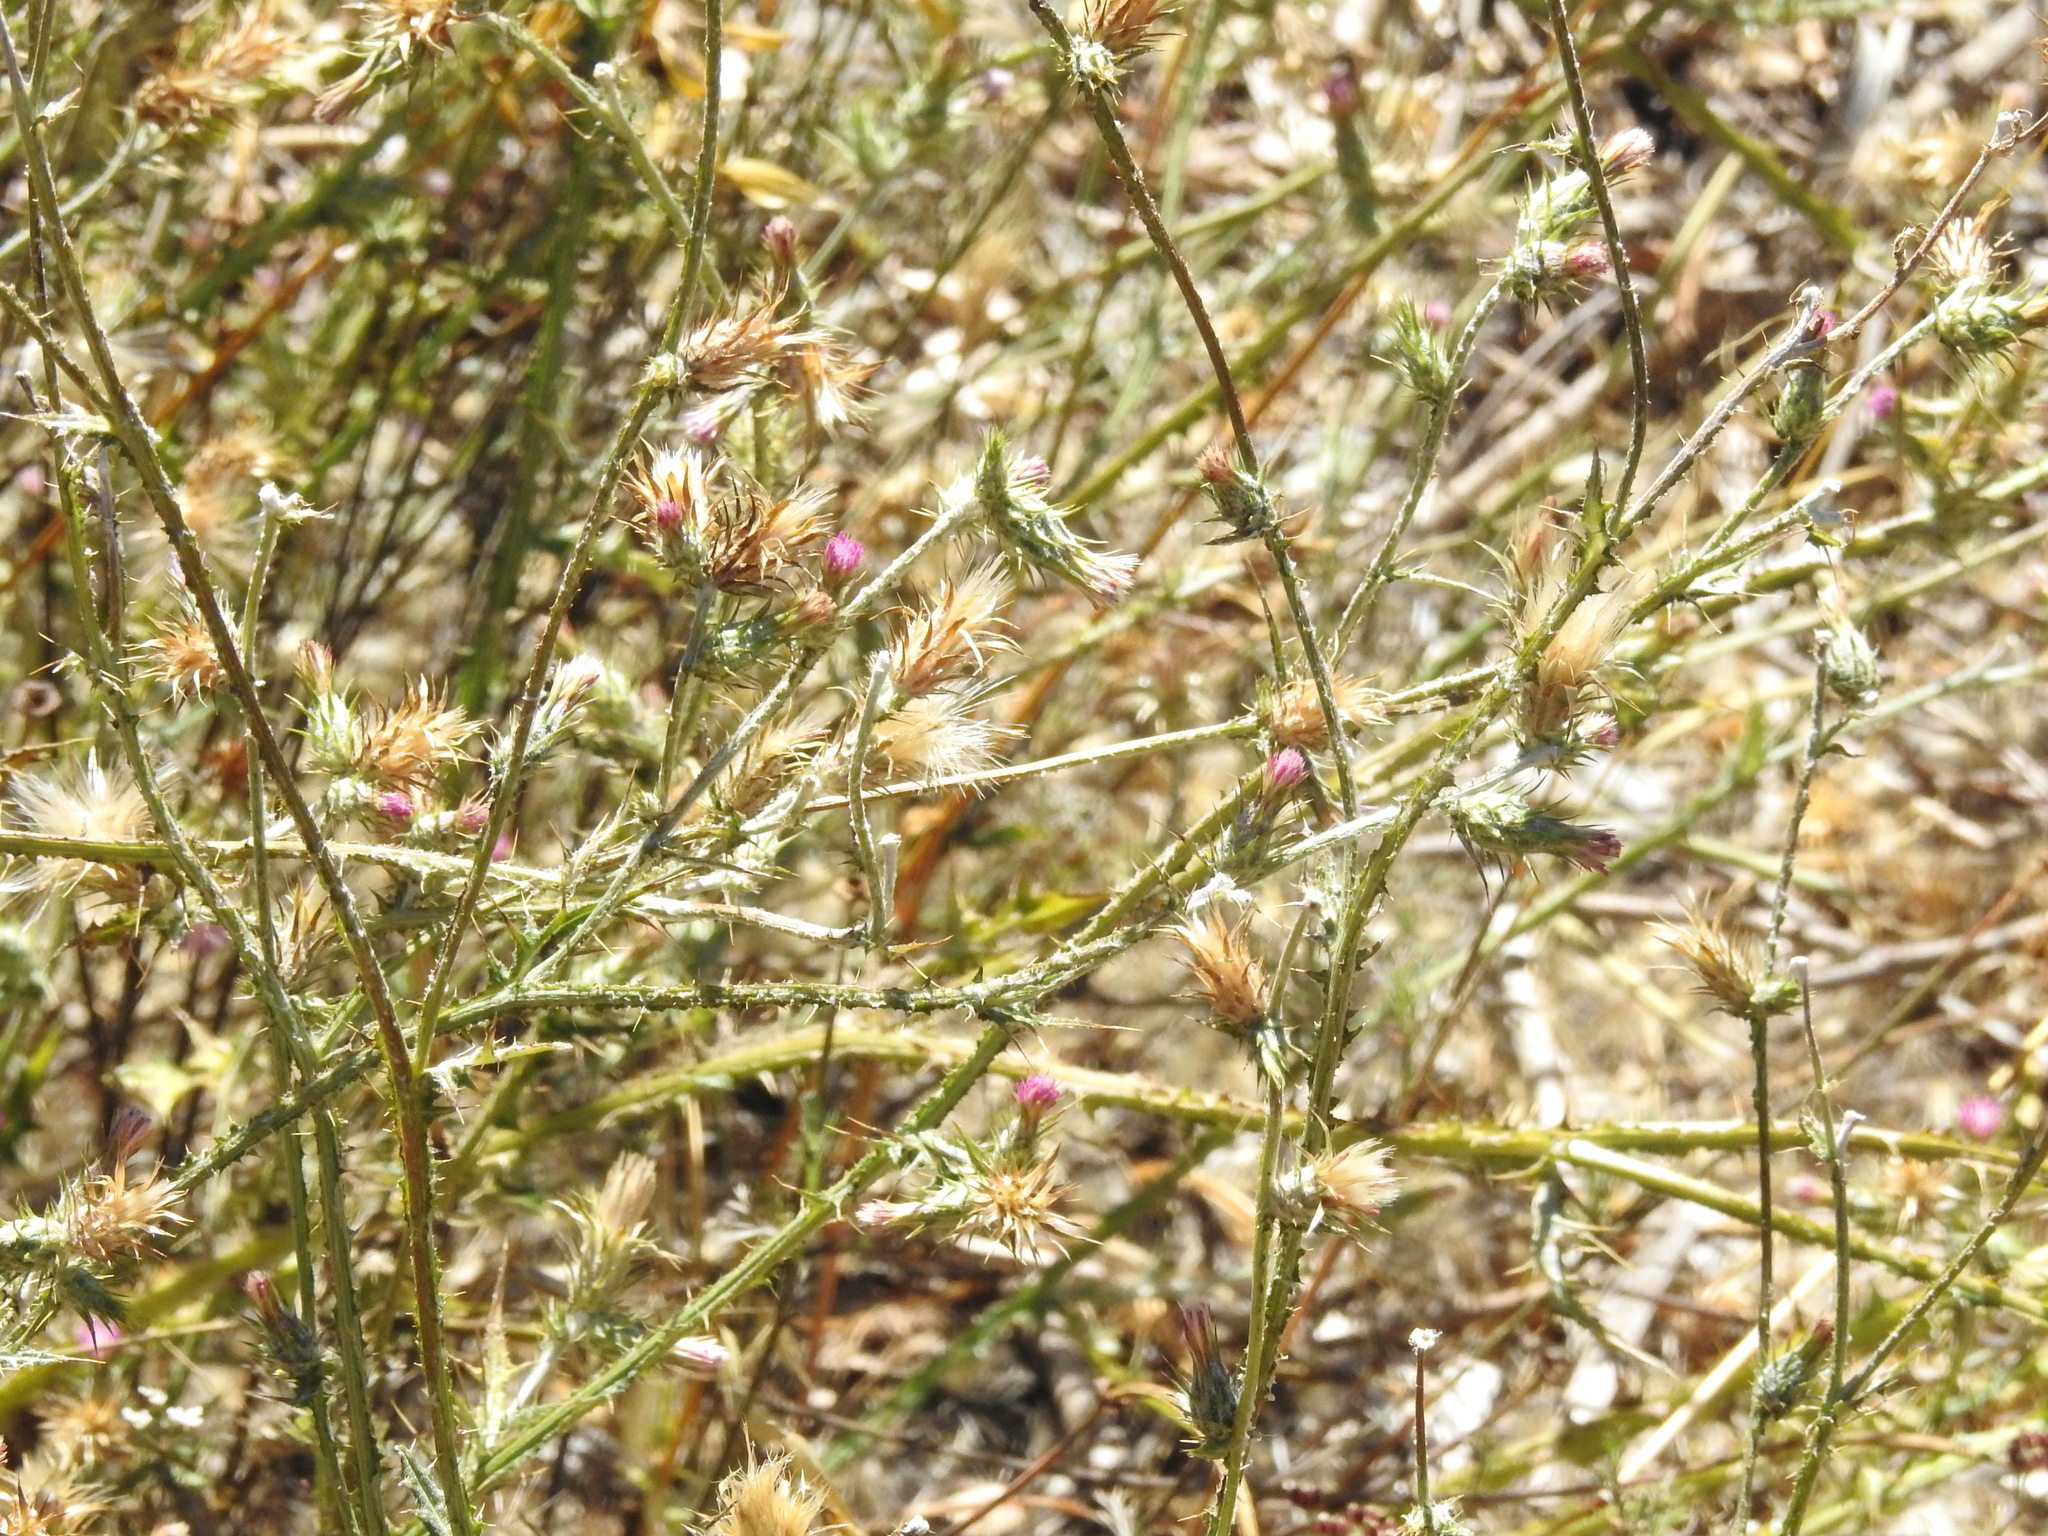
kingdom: Plantae
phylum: Tracheophyta
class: Magnoliopsida
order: Asterales
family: Asteraceae
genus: Carduus
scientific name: Carduus pycnocephalus
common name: Plymouth thistle
